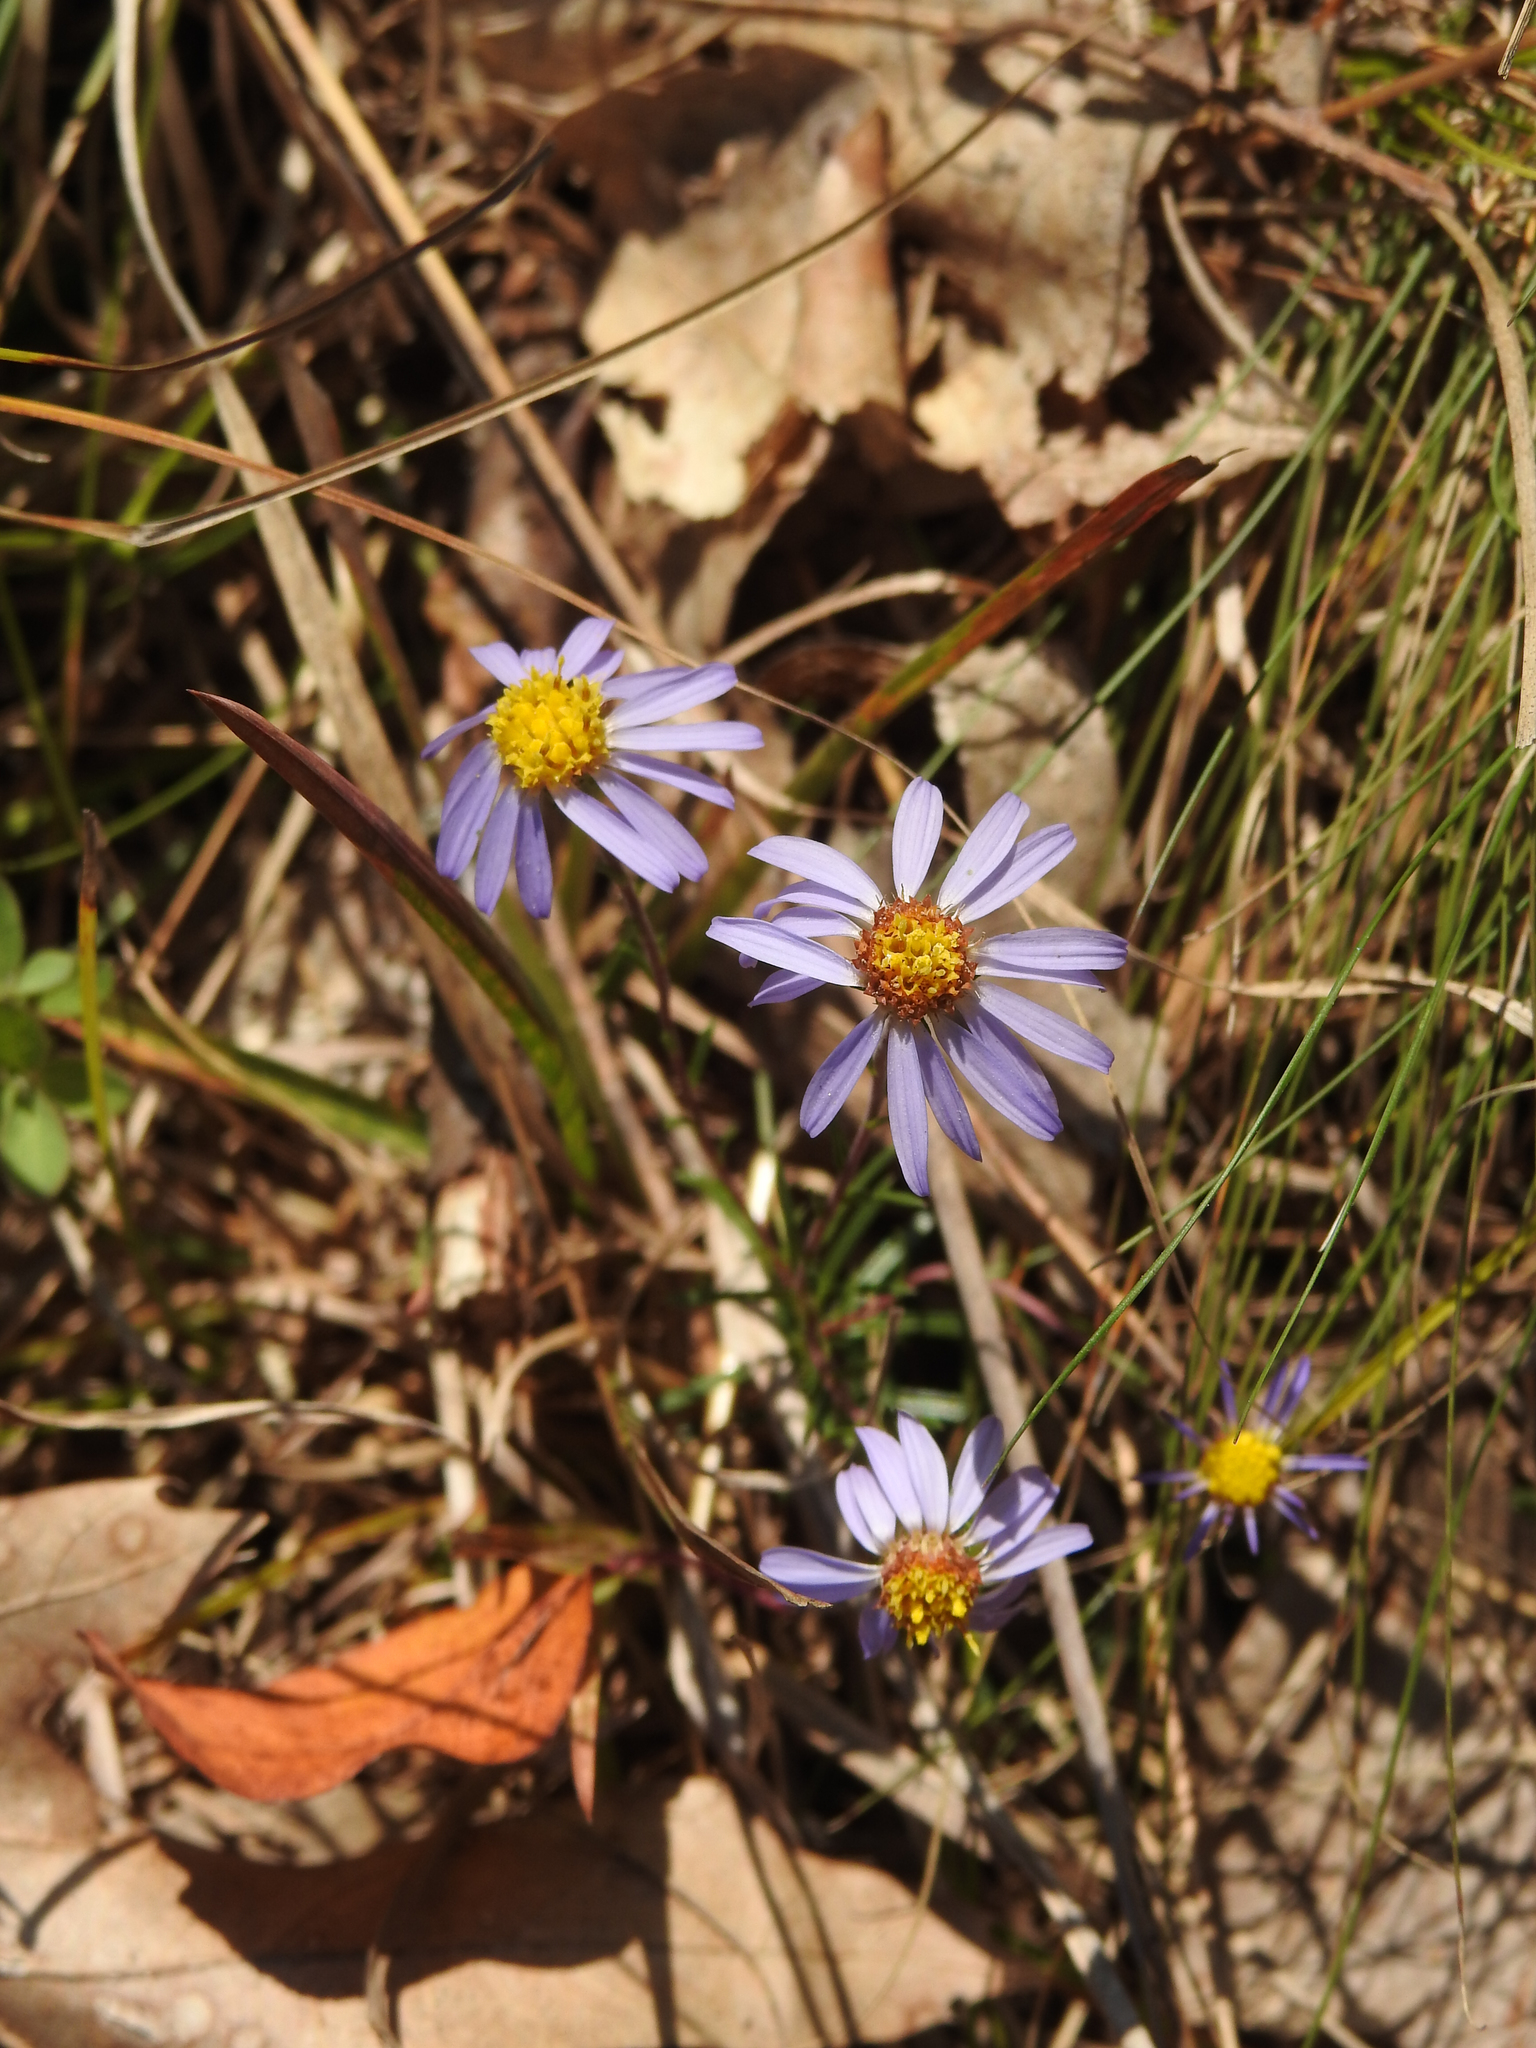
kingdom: Plantae
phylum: Tracheophyta
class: Magnoliopsida
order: Asterales
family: Asteraceae
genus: Ionactis
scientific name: Ionactis linariifolia
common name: Flax-leaf aster
